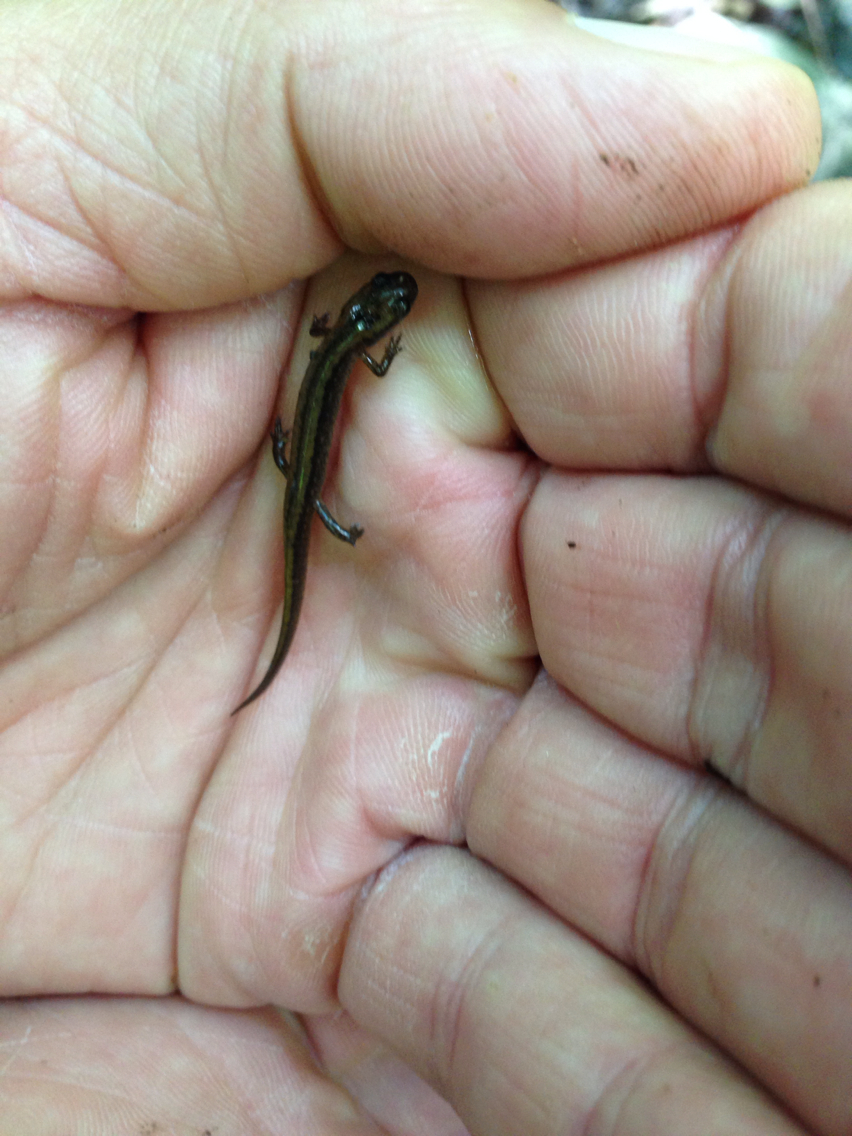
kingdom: Animalia
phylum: Chordata
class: Amphibia
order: Caudata
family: Plethodontidae
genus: Eurycea
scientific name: Eurycea bislineata
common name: Northern two-lined salamander
